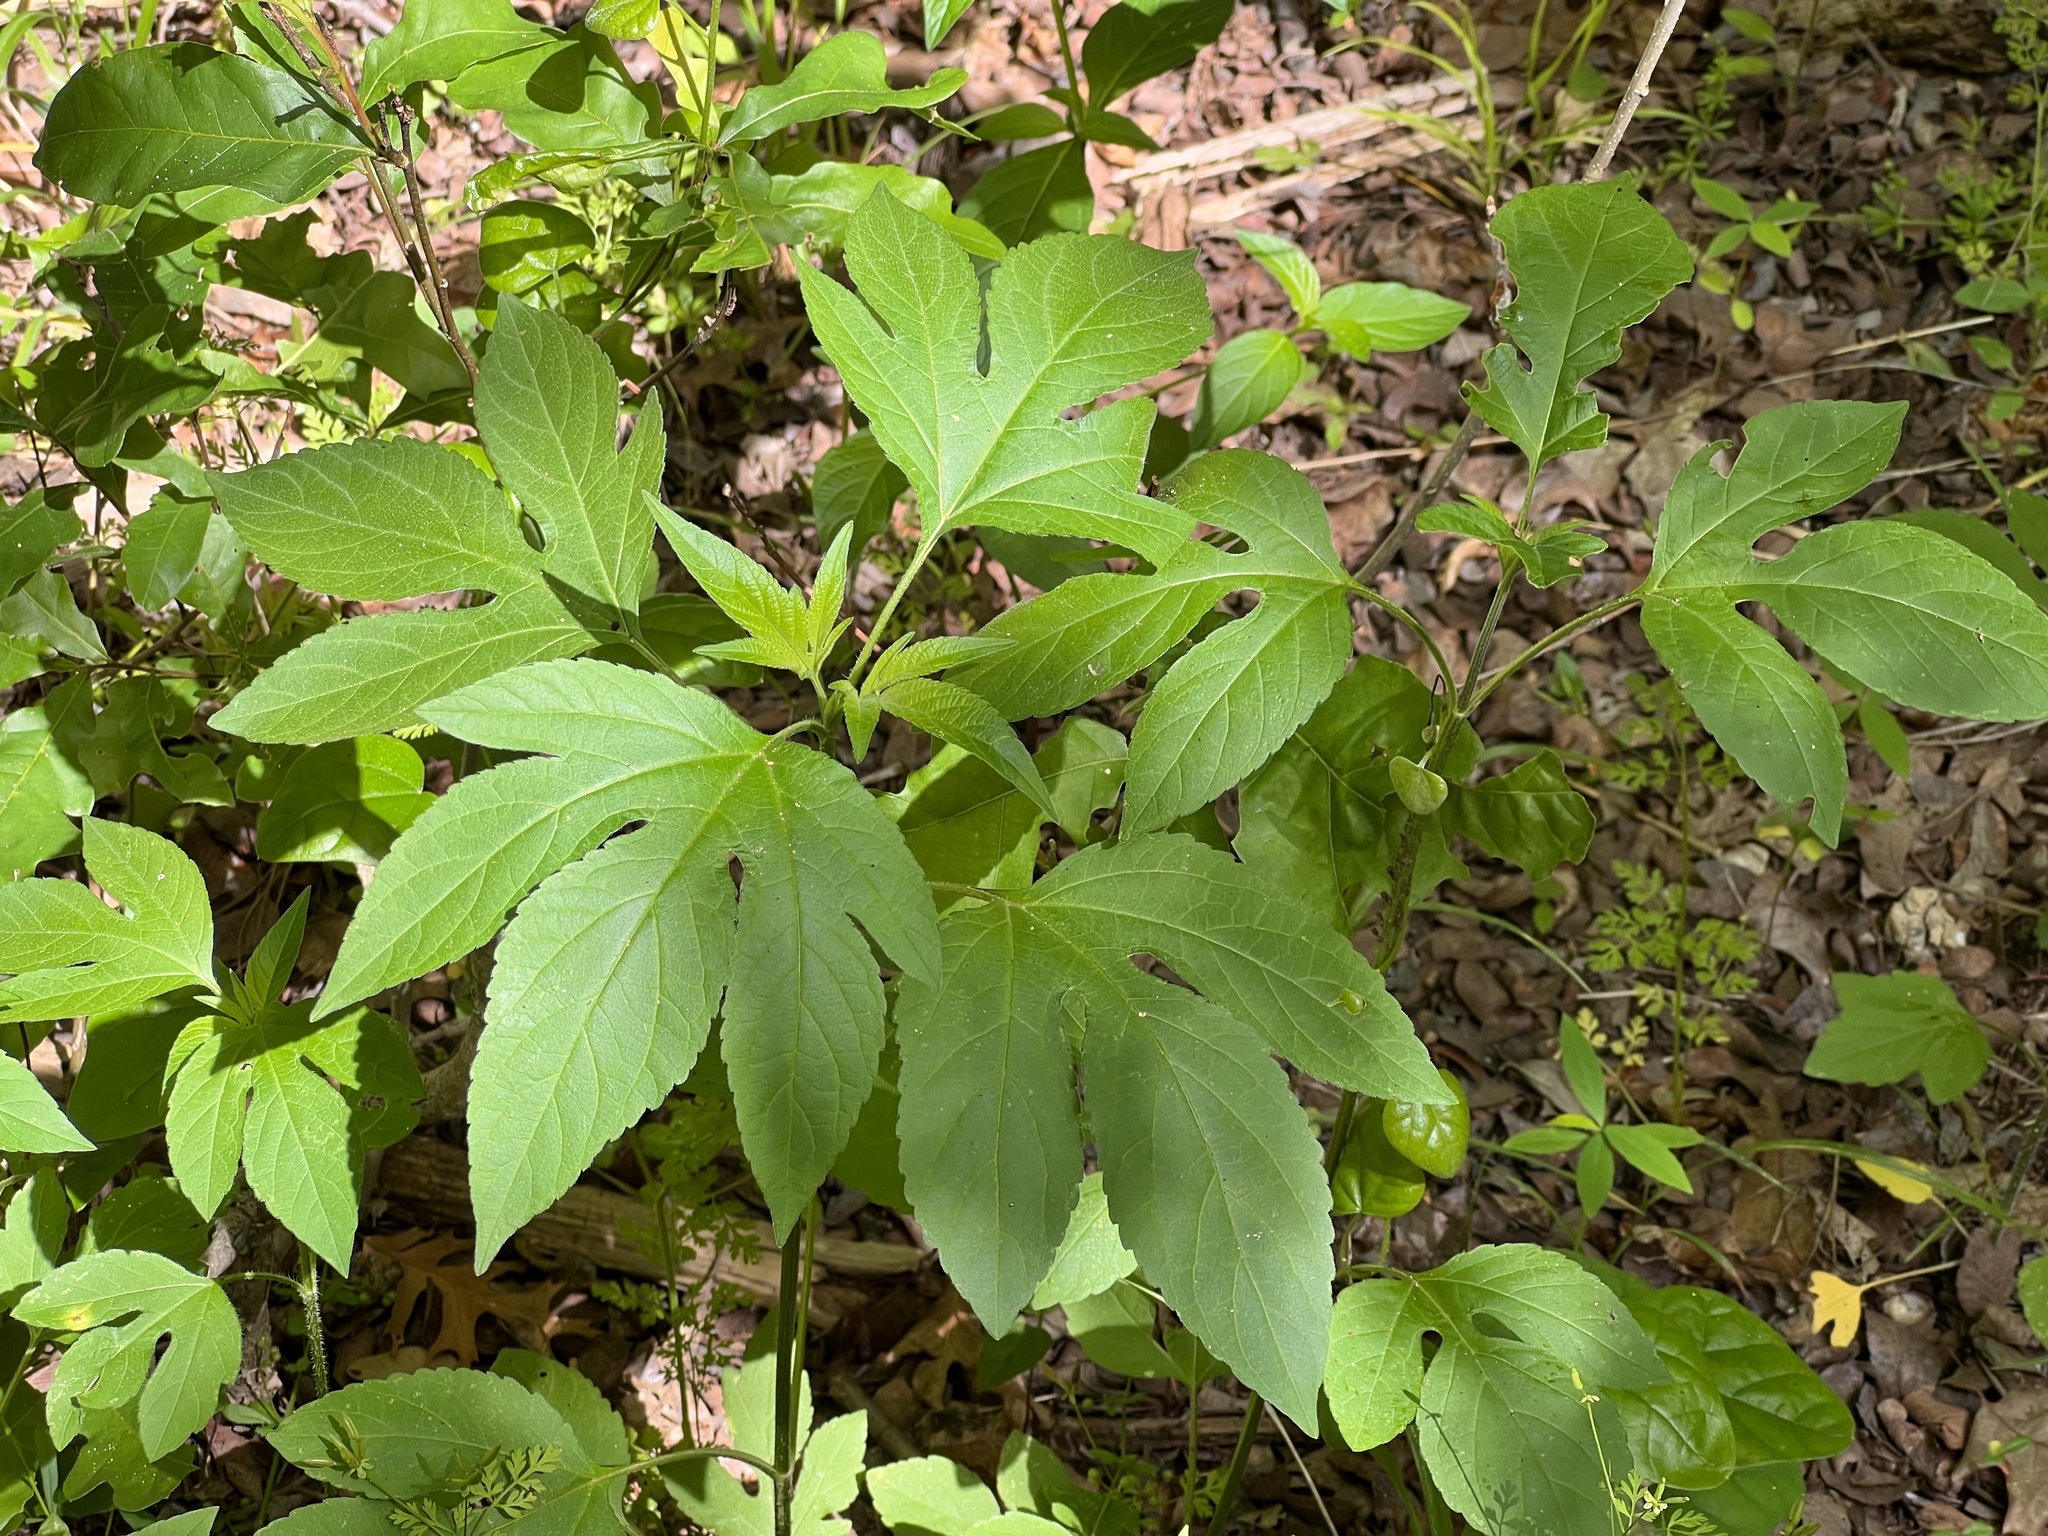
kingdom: Plantae
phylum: Tracheophyta
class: Magnoliopsida
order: Asterales
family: Asteraceae
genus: Ambrosia
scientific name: Ambrosia trifida
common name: Giant ragweed
